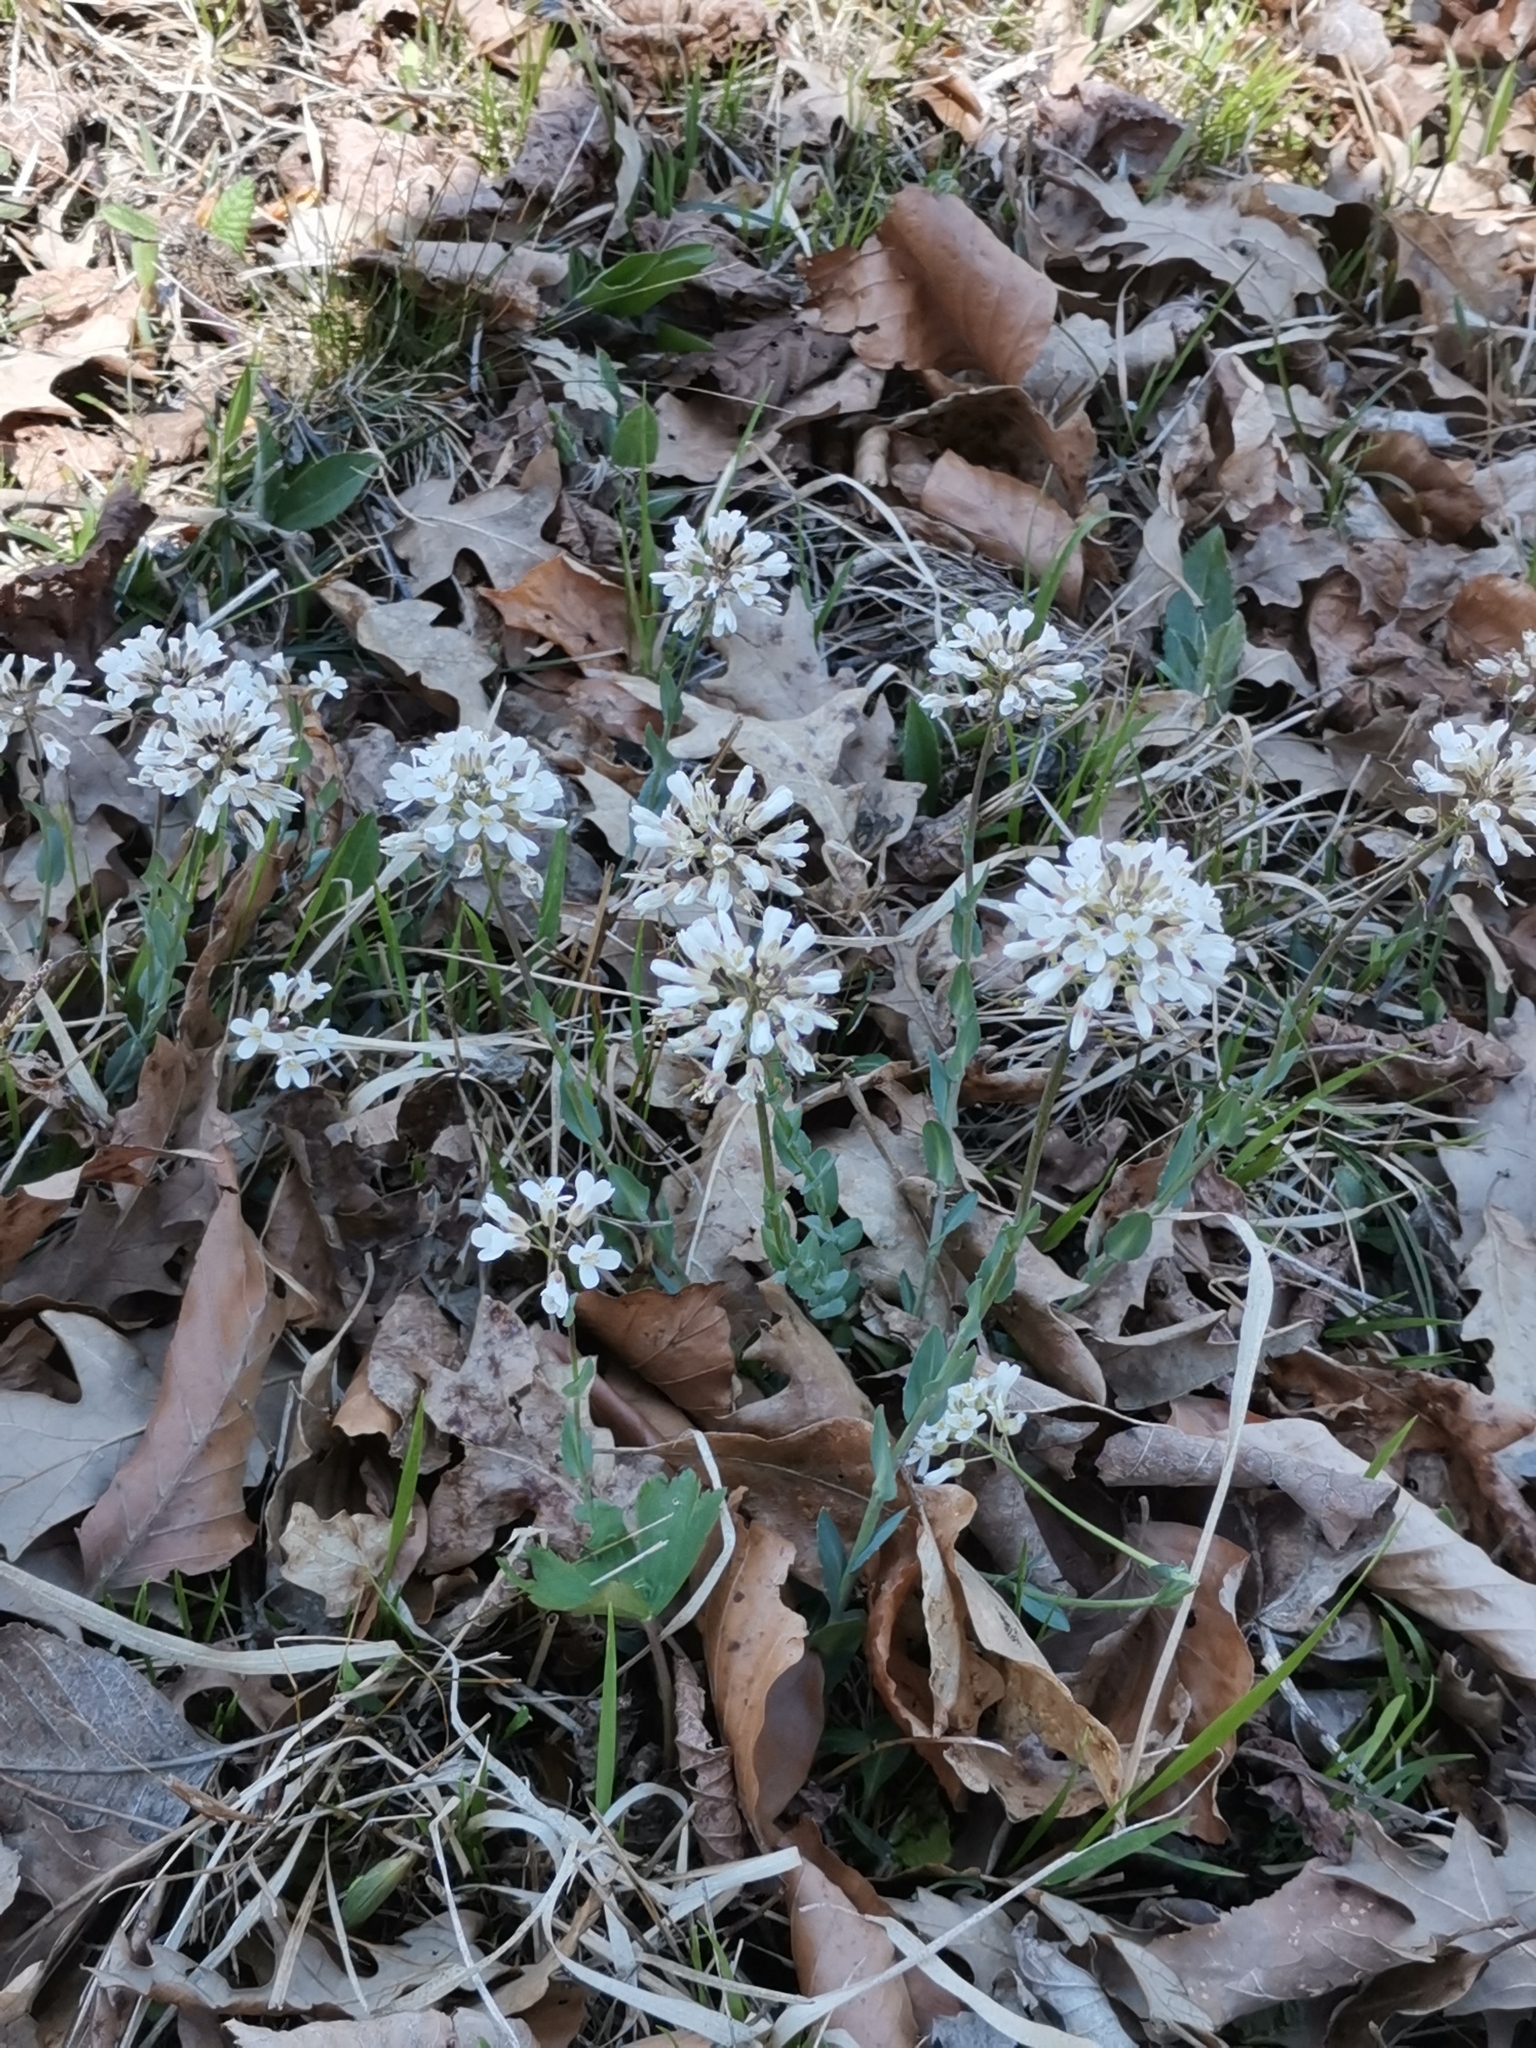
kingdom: Plantae
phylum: Tracheophyta
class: Magnoliopsida
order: Brassicales
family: Brassicaceae
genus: Noccaea
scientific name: Noccaea praecox
